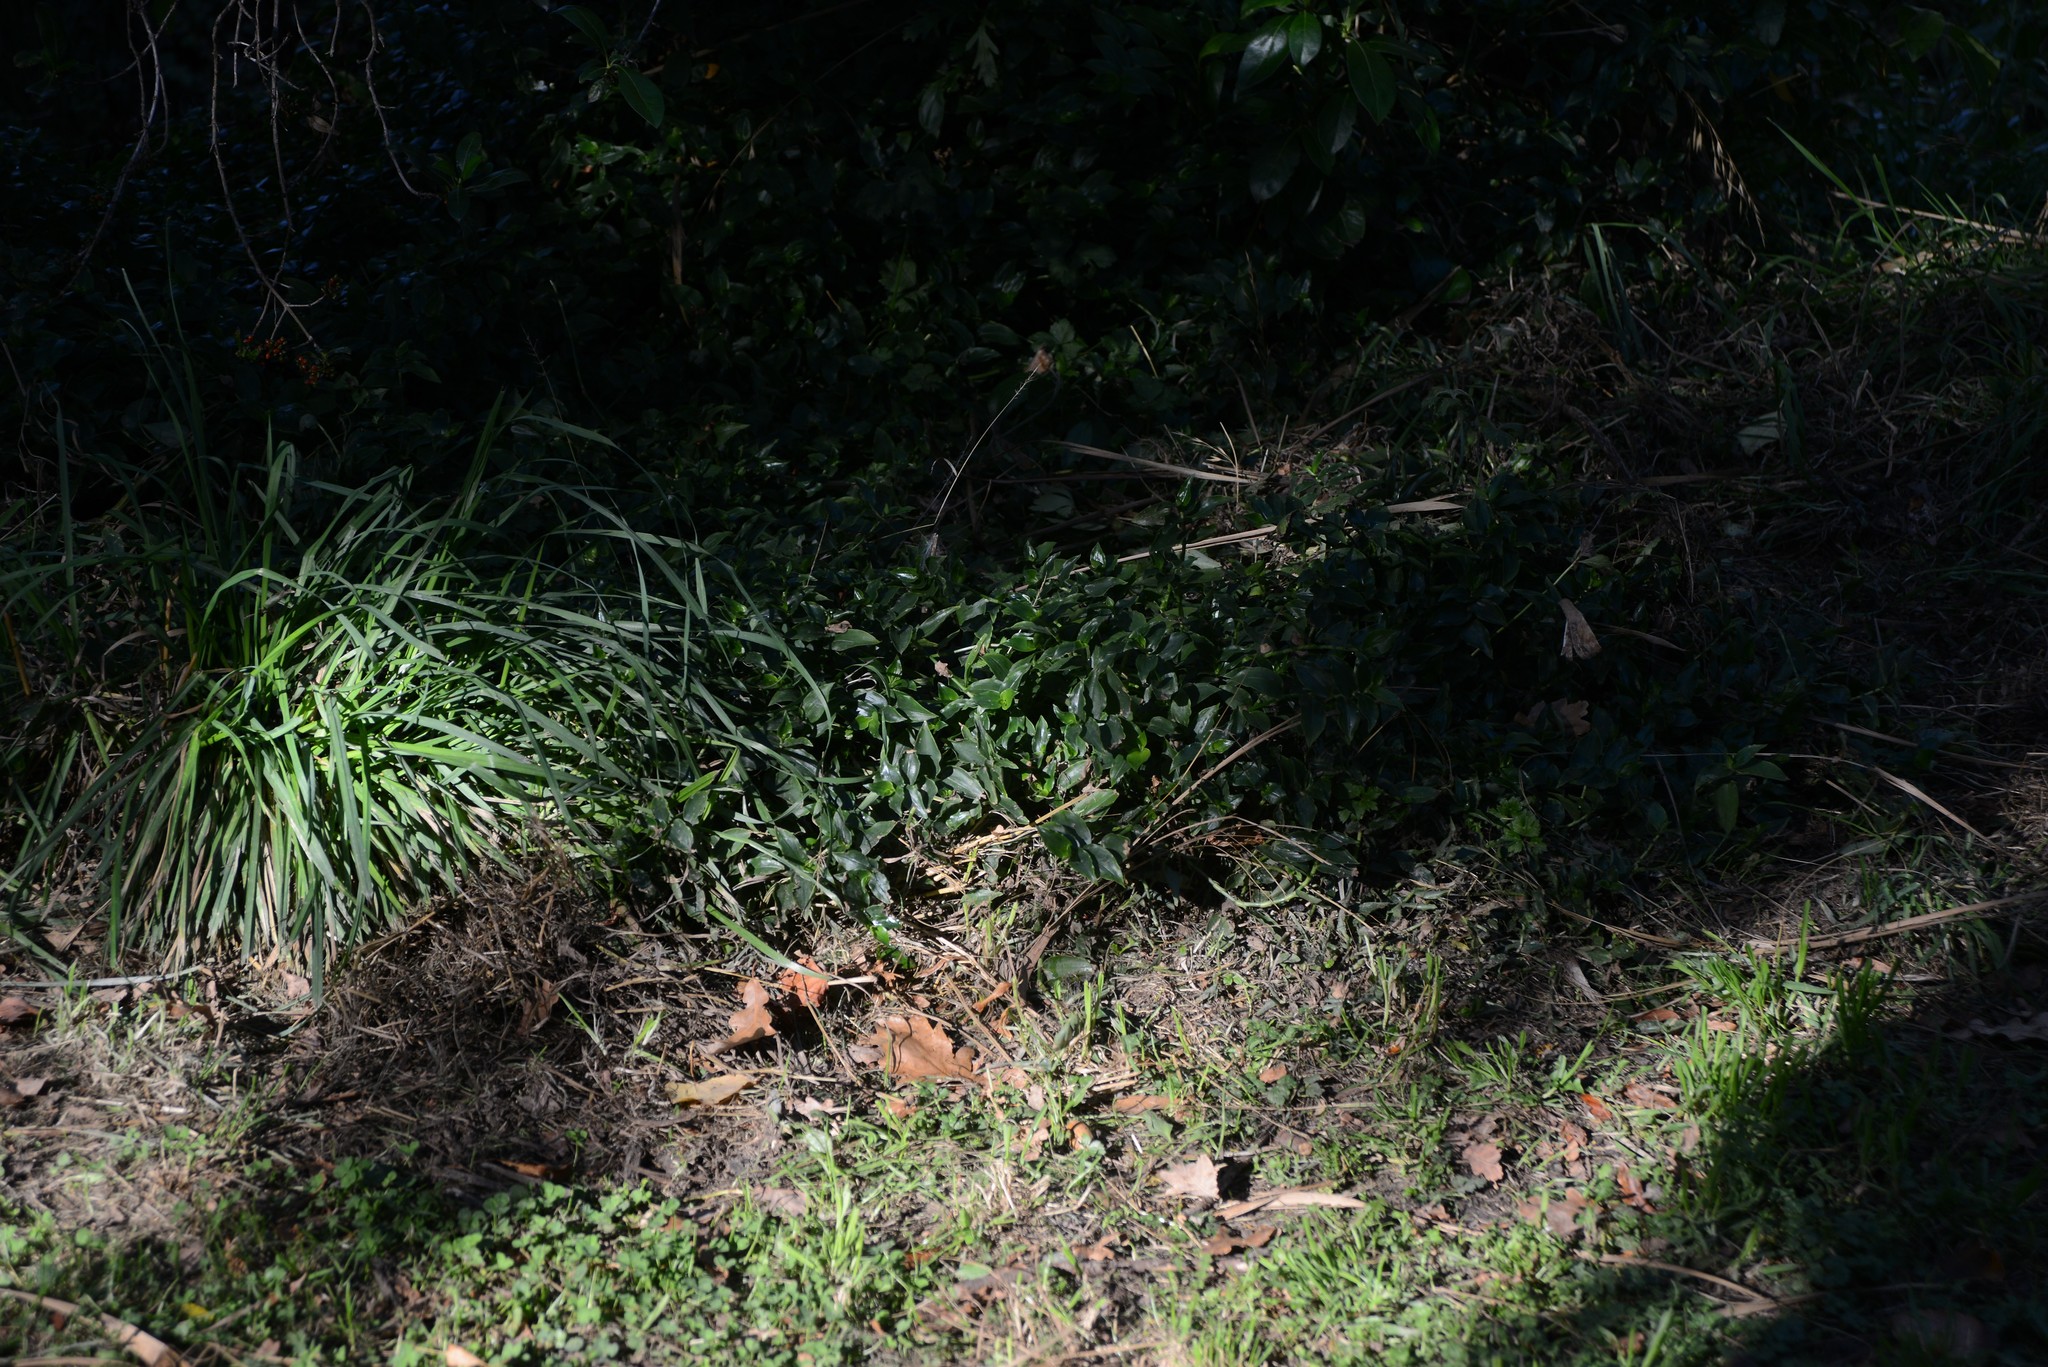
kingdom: Plantae
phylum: Tracheophyta
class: Liliopsida
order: Commelinales
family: Commelinaceae
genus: Tradescantia
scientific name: Tradescantia fluminensis
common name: Wandering-jew
